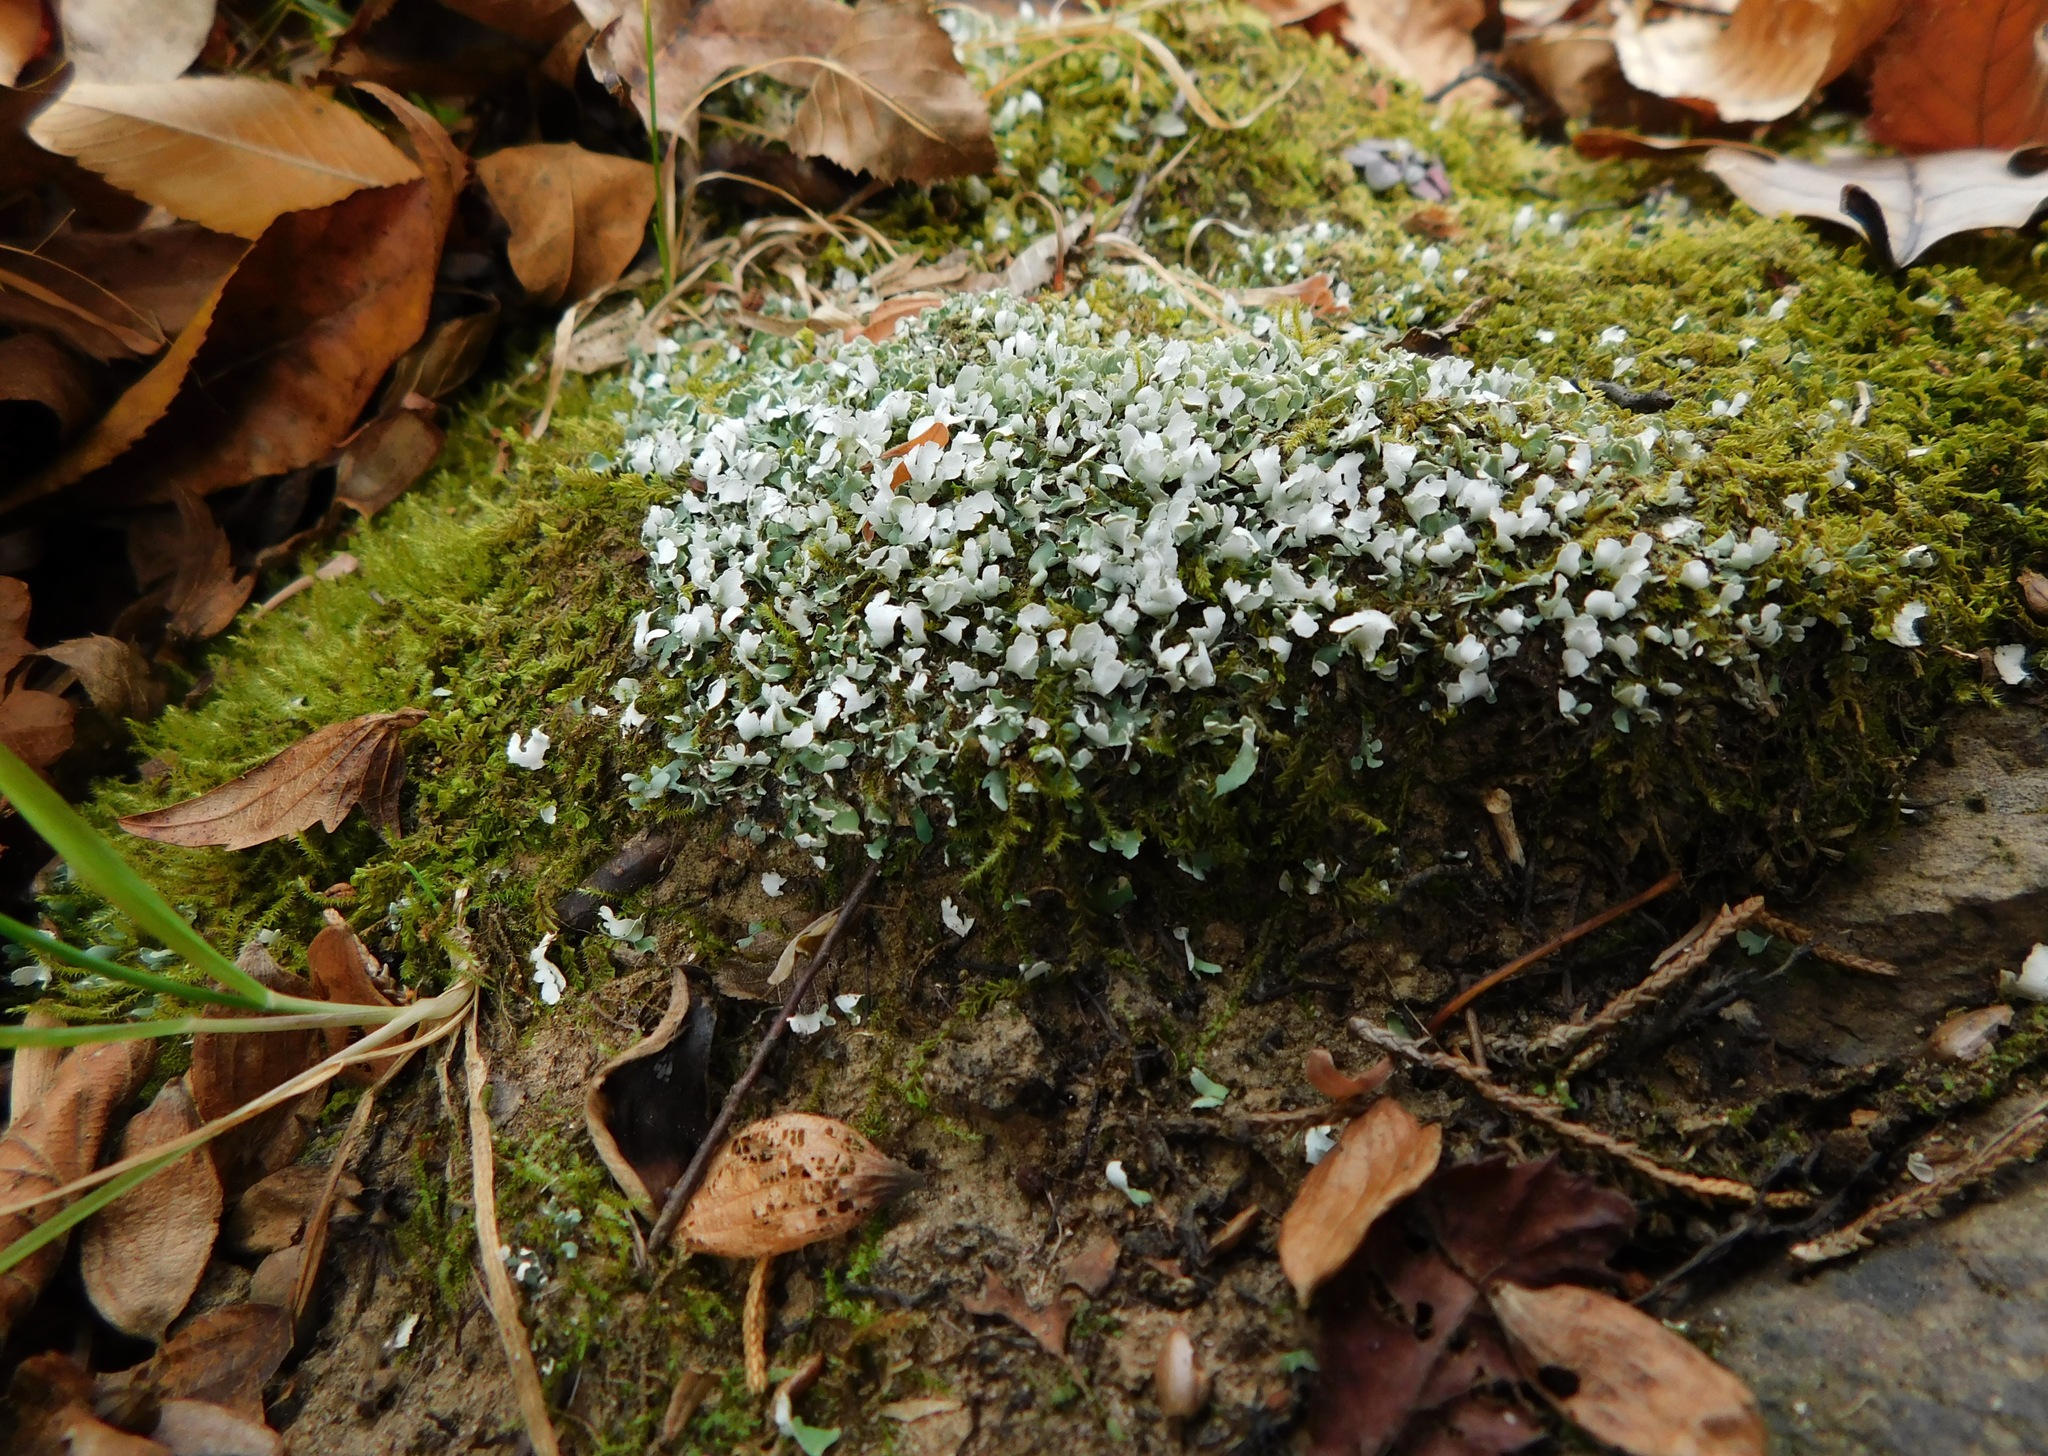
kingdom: Fungi
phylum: Ascomycota
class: Lecanoromycetes
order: Lecanorales
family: Cladoniaceae
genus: Cladonia
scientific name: Cladonia apodocarpa
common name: Stalkless cladonia
